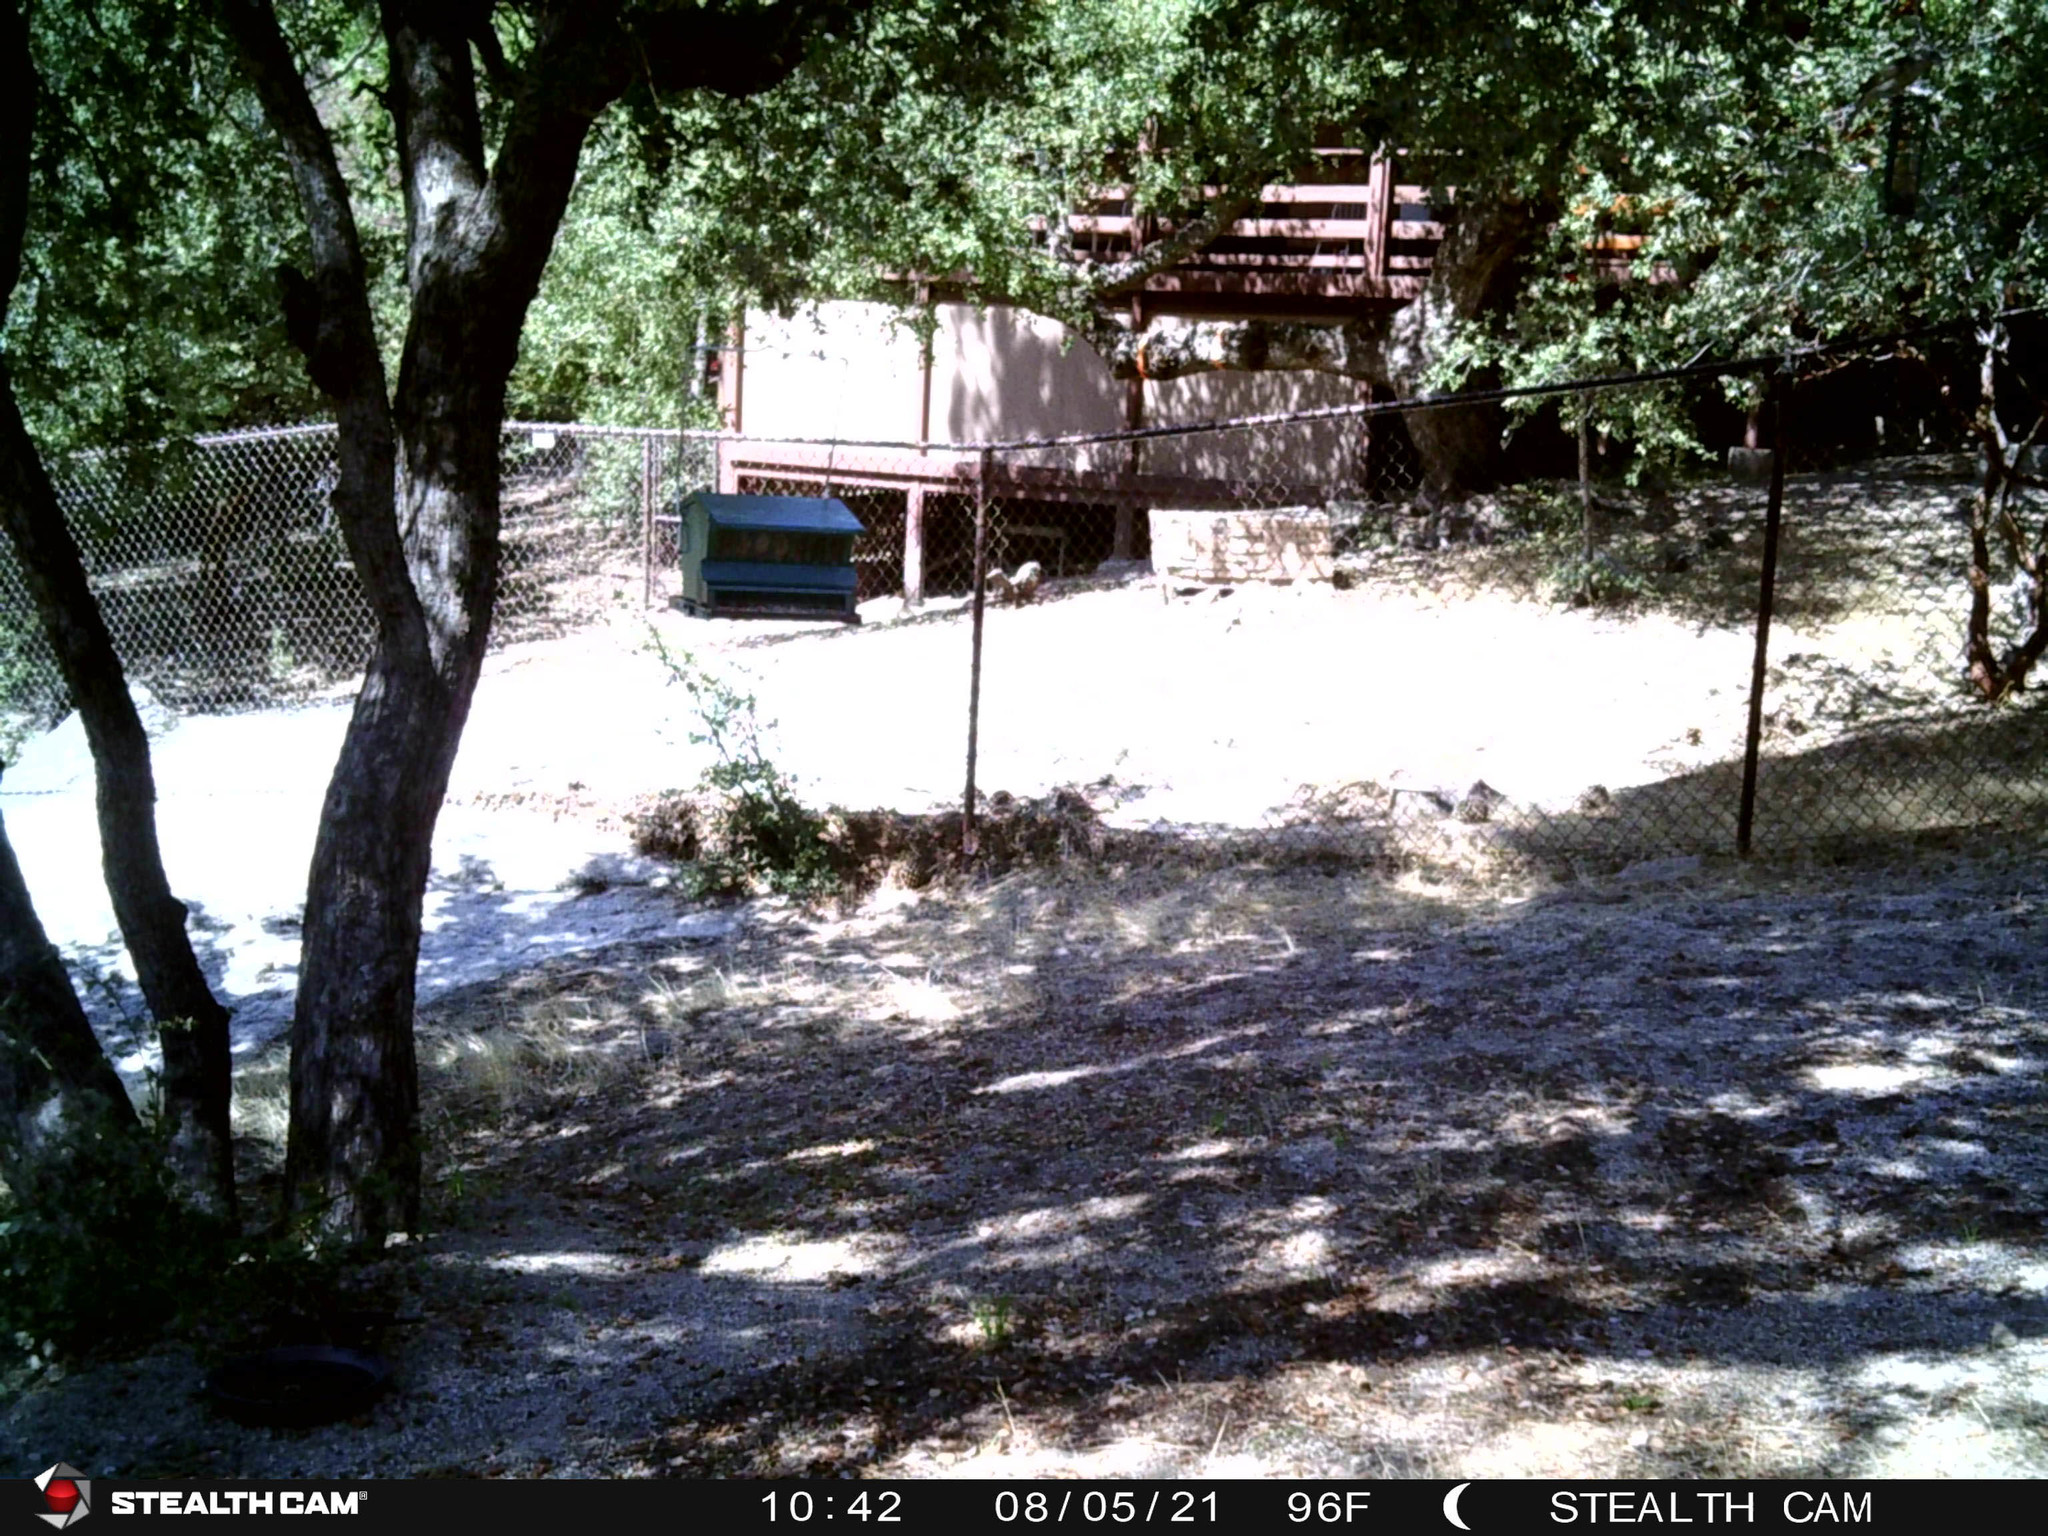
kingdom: Animalia
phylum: Chordata
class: Aves
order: Passeriformes
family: Cardinalidae
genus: Pheucticus
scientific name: Pheucticus melanocephalus
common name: Black-headed grosbeak
